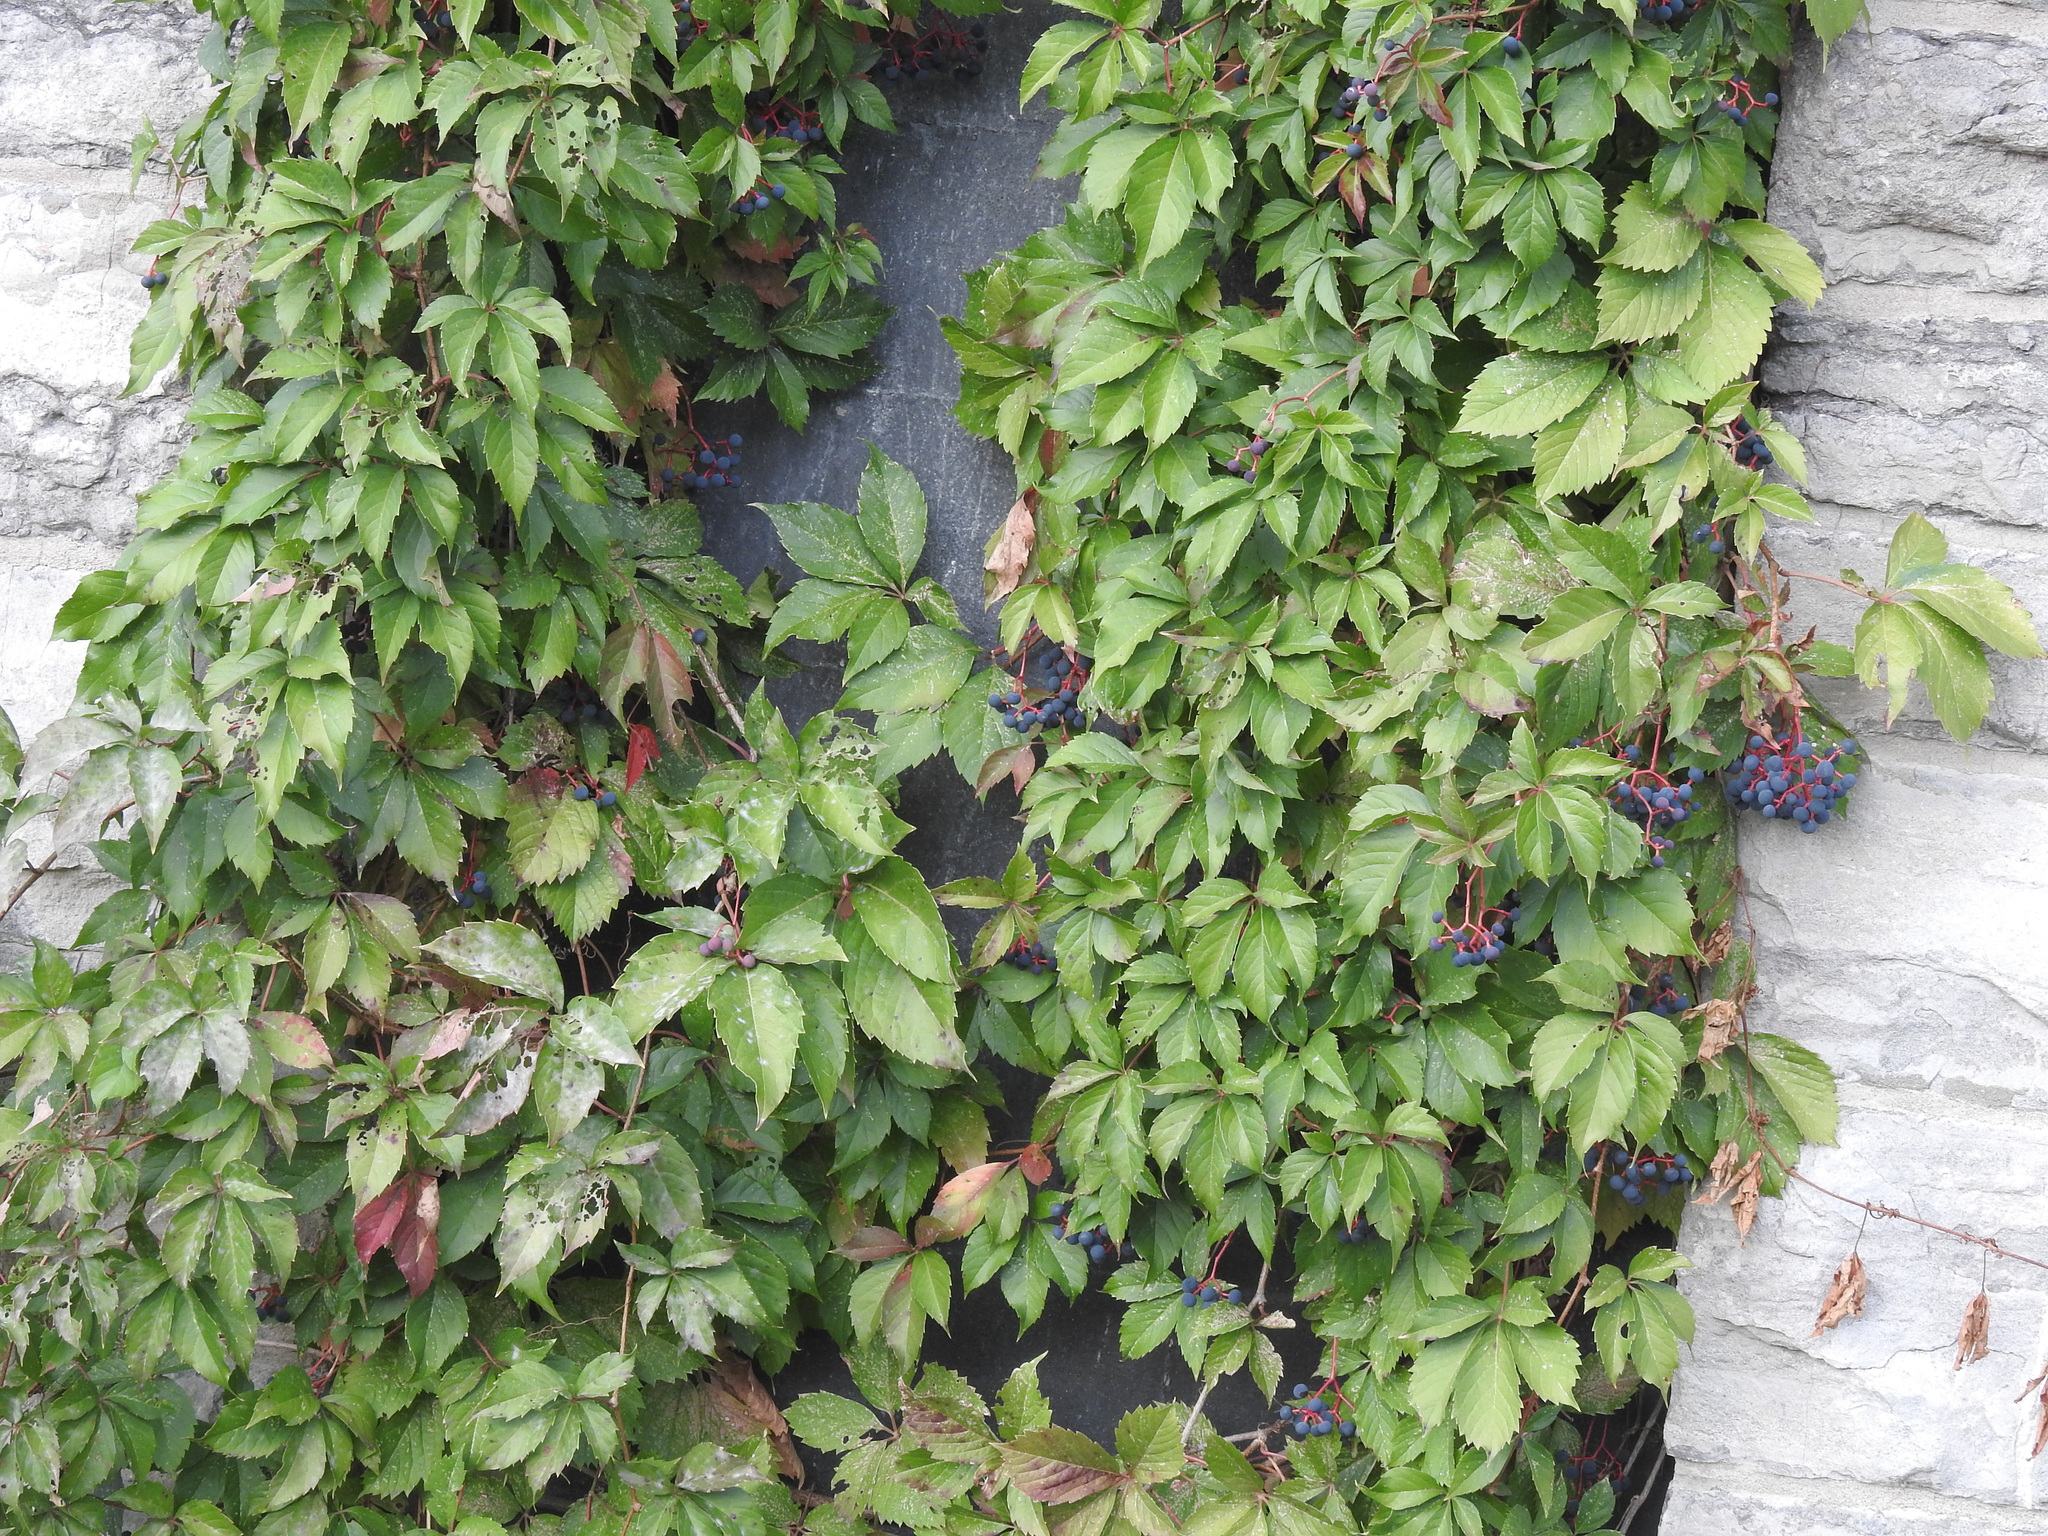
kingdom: Plantae
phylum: Tracheophyta
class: Magnoliopsida
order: Vitales
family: Vitaceae
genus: Parthenocissus
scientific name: Parthenocissus quinquefolia
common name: Virginia-creeper
